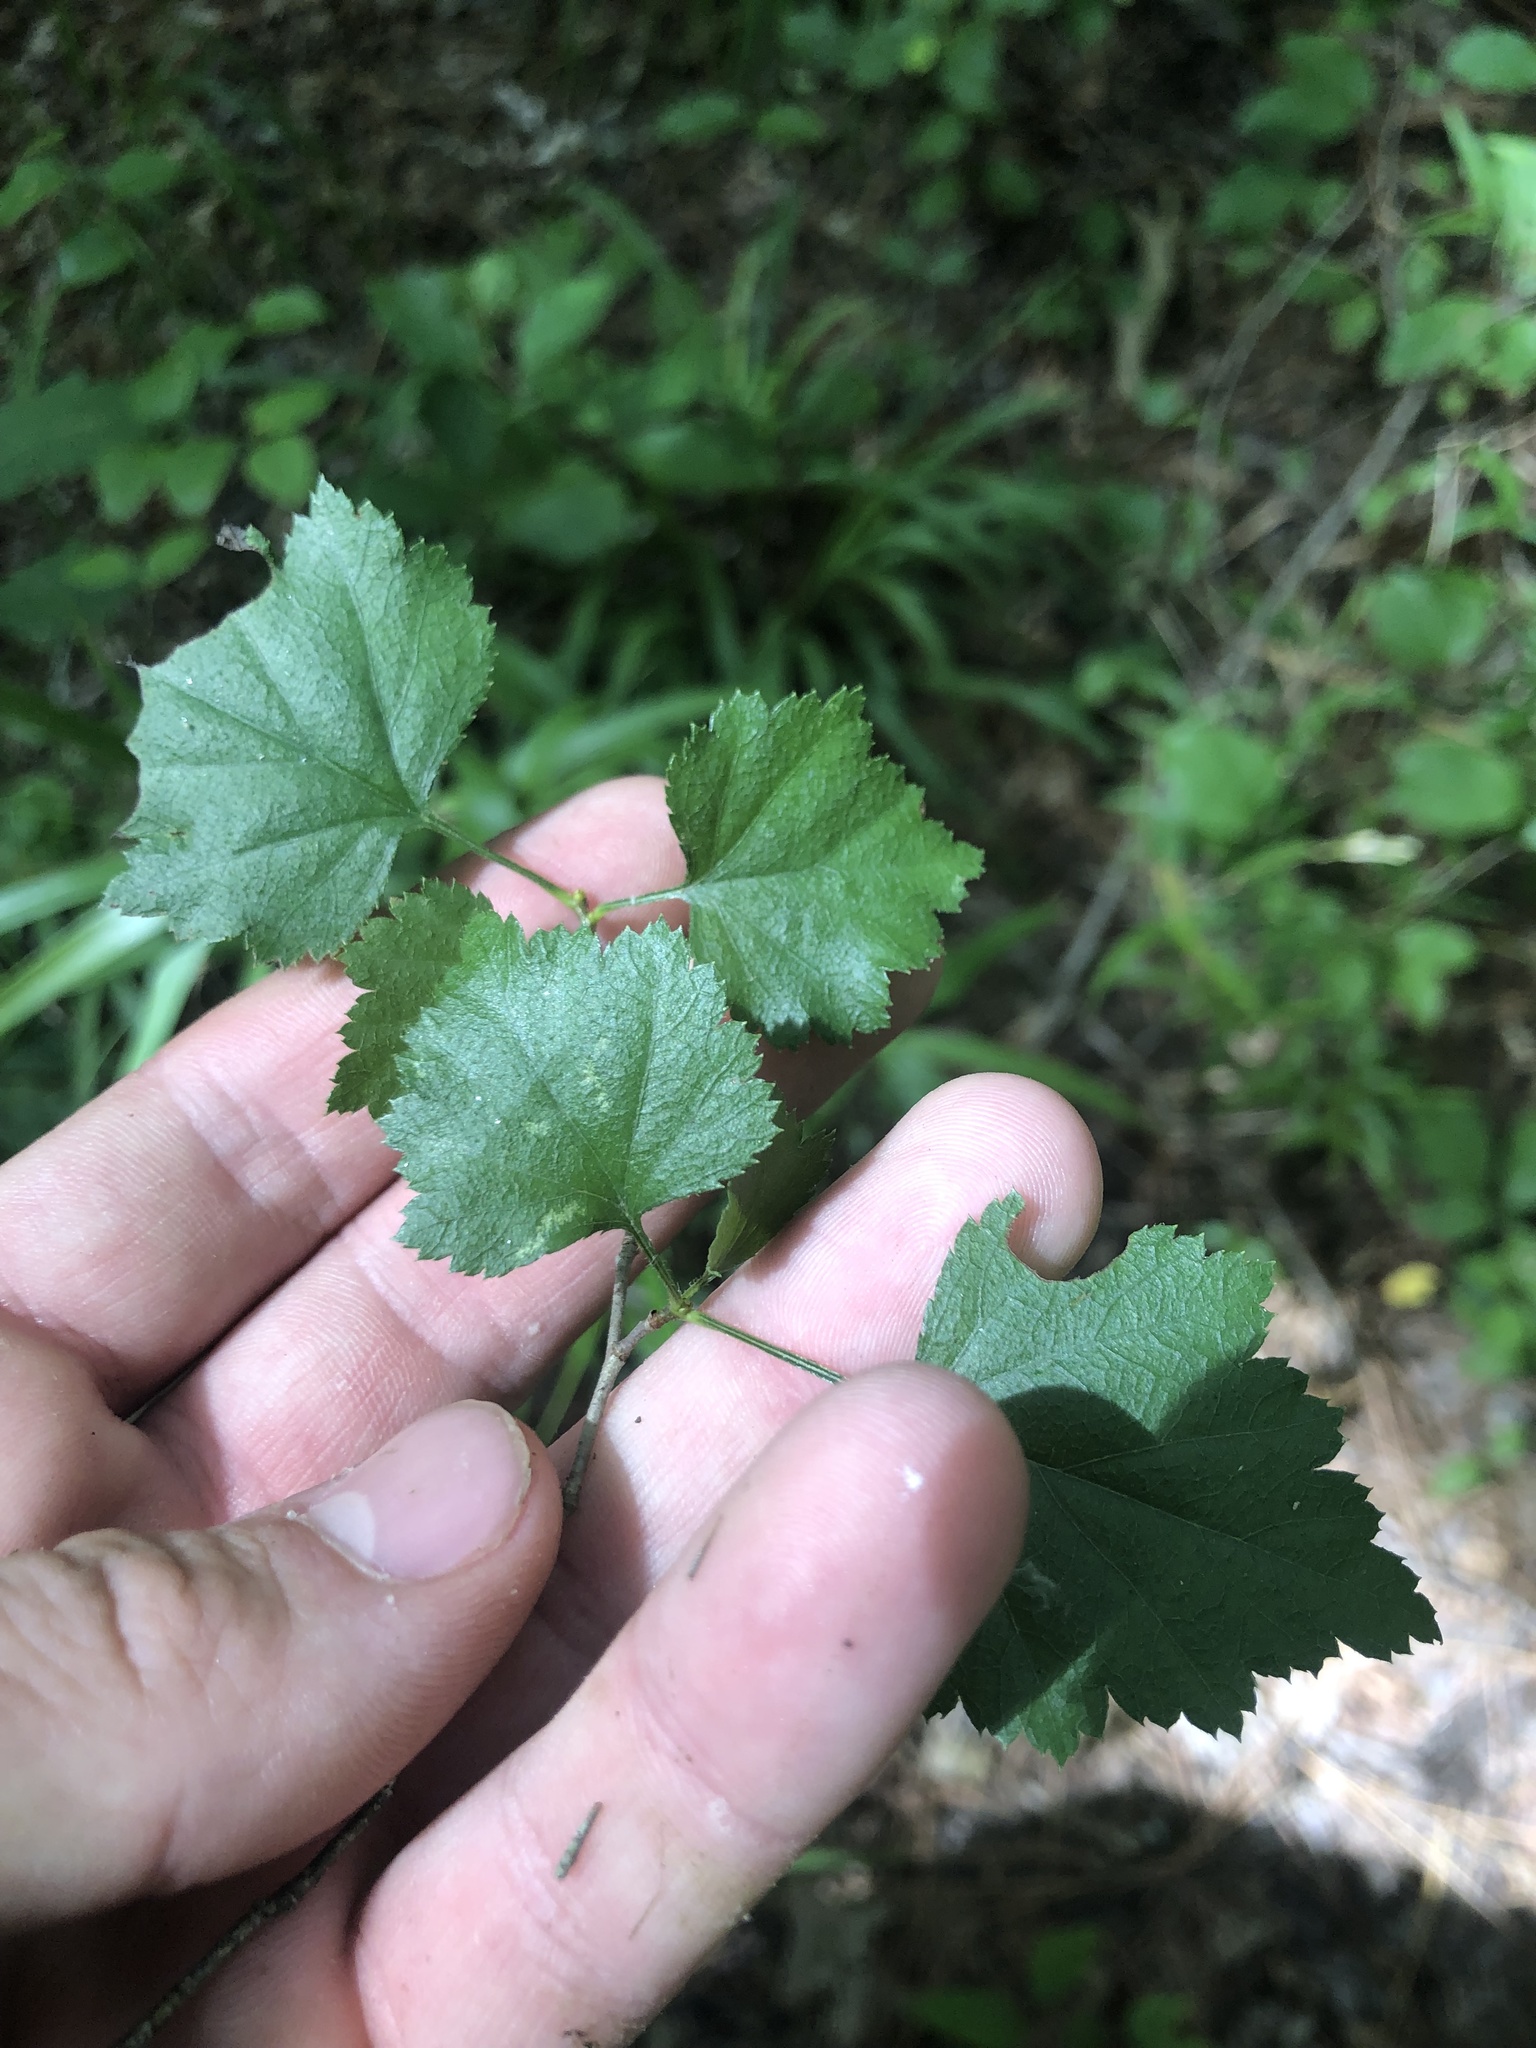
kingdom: Plantae
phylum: Tracheophyta
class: Magnoliopsida
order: Rosales
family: Rosaceae
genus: Crataegus
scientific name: Crataegus iracunda
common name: Stolon-bearing hawthorn
